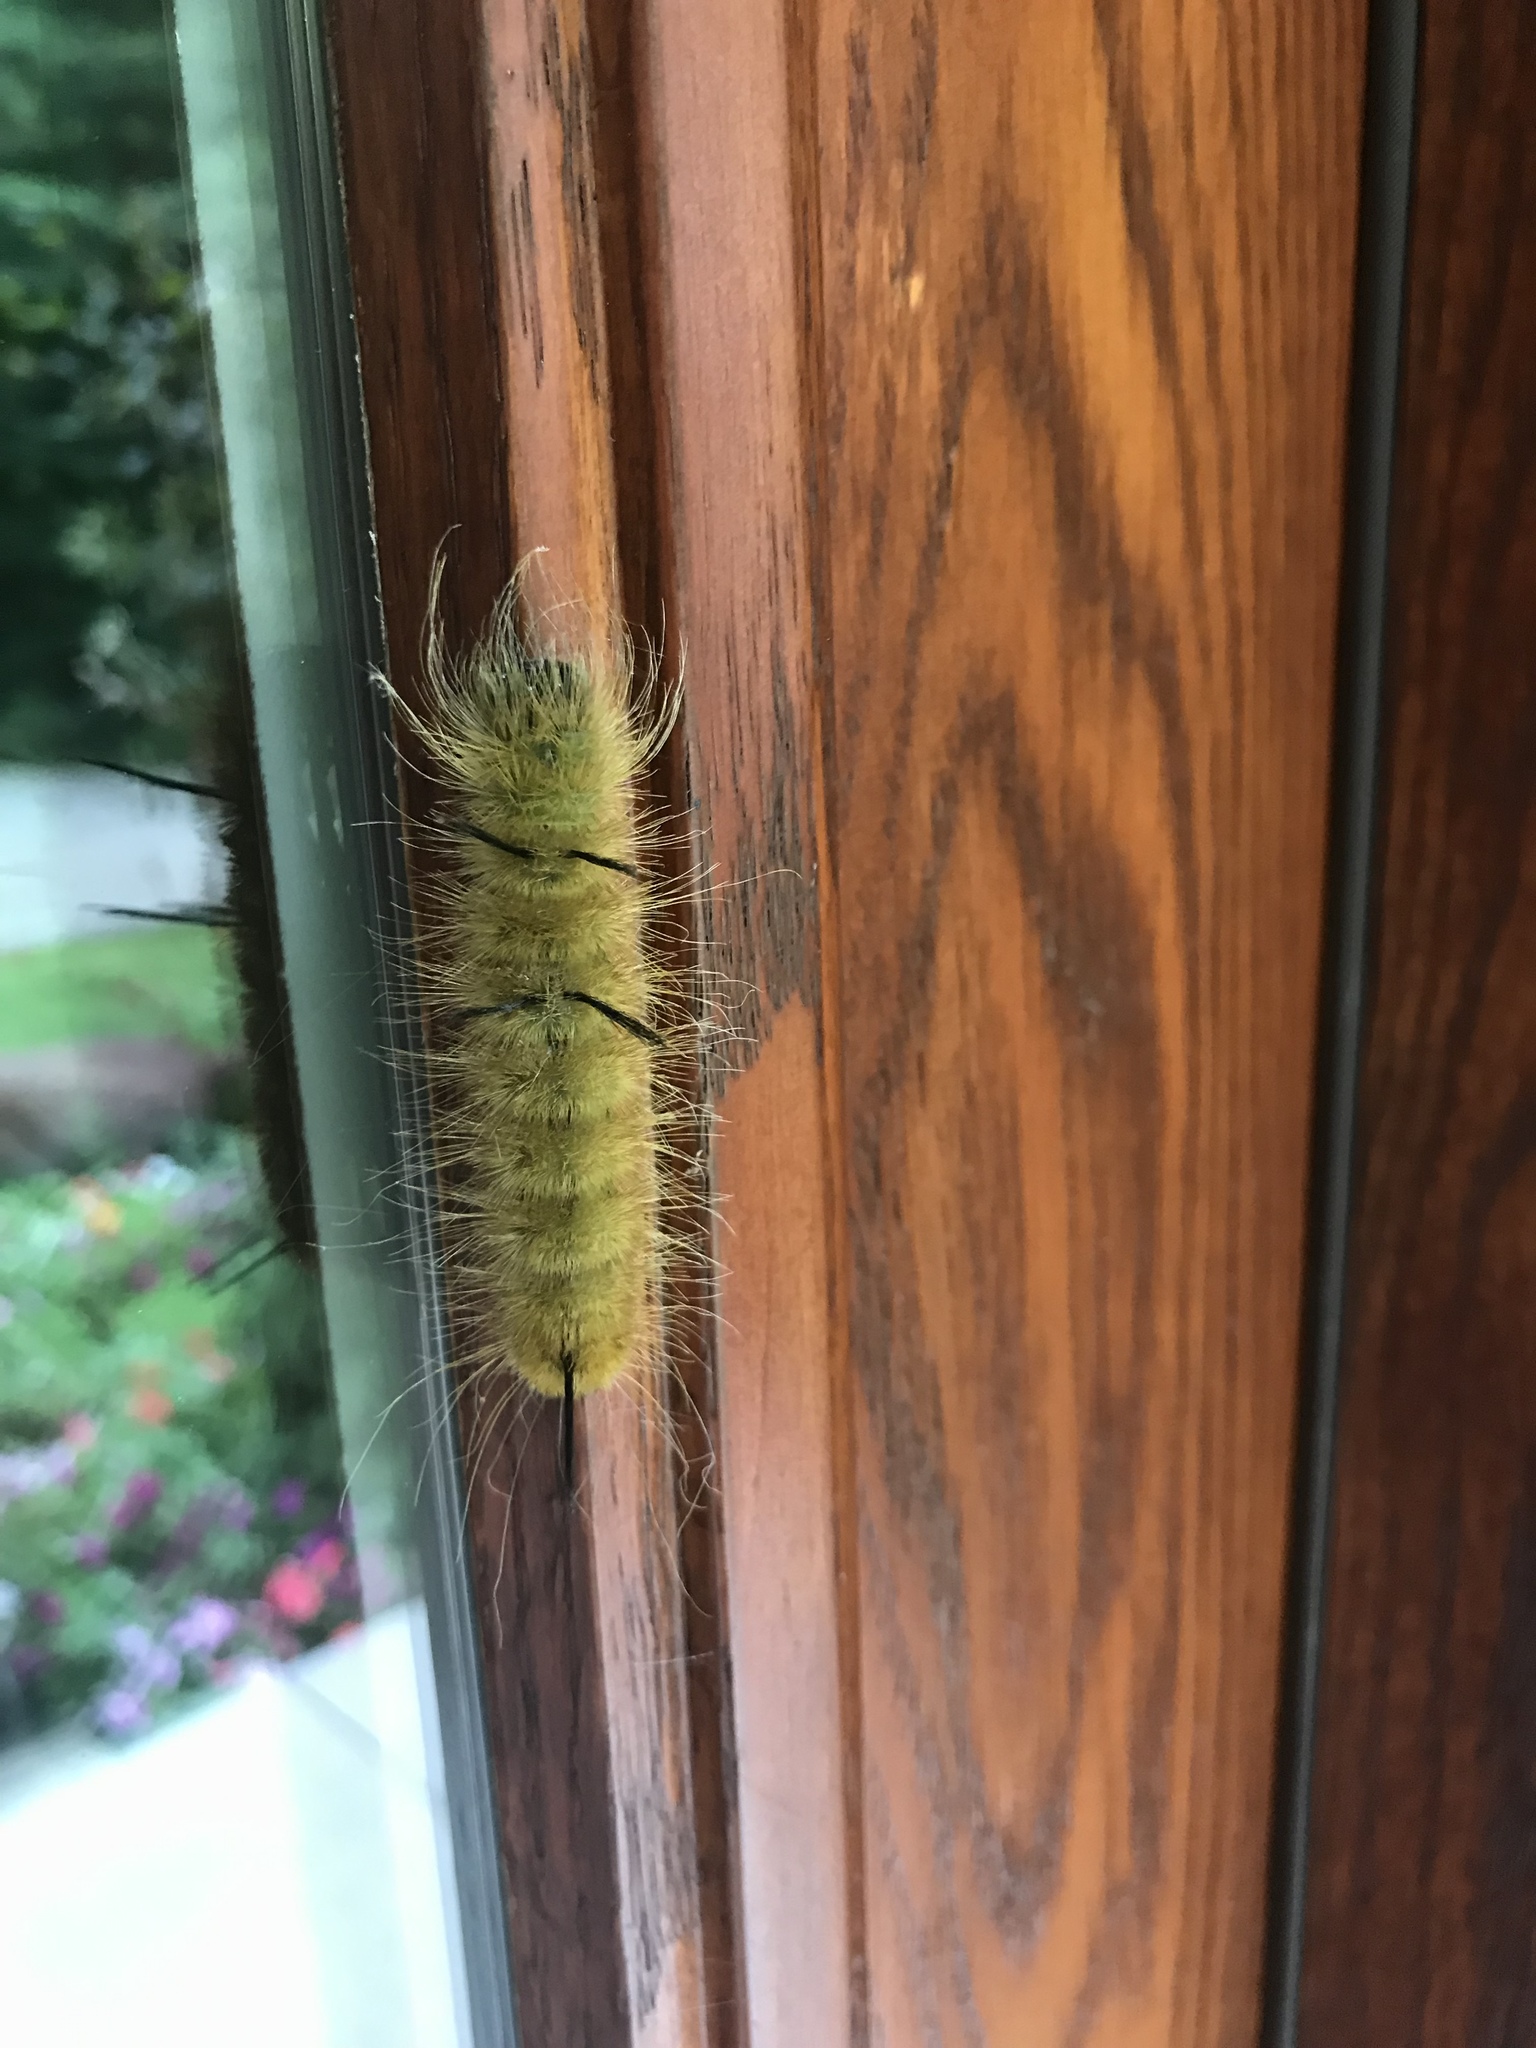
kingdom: Animalia
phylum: Arthropoda
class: Insecta
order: Lepidoptera
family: Noctuidae
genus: Acronicta
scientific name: Acronicta americana
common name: American dagger
